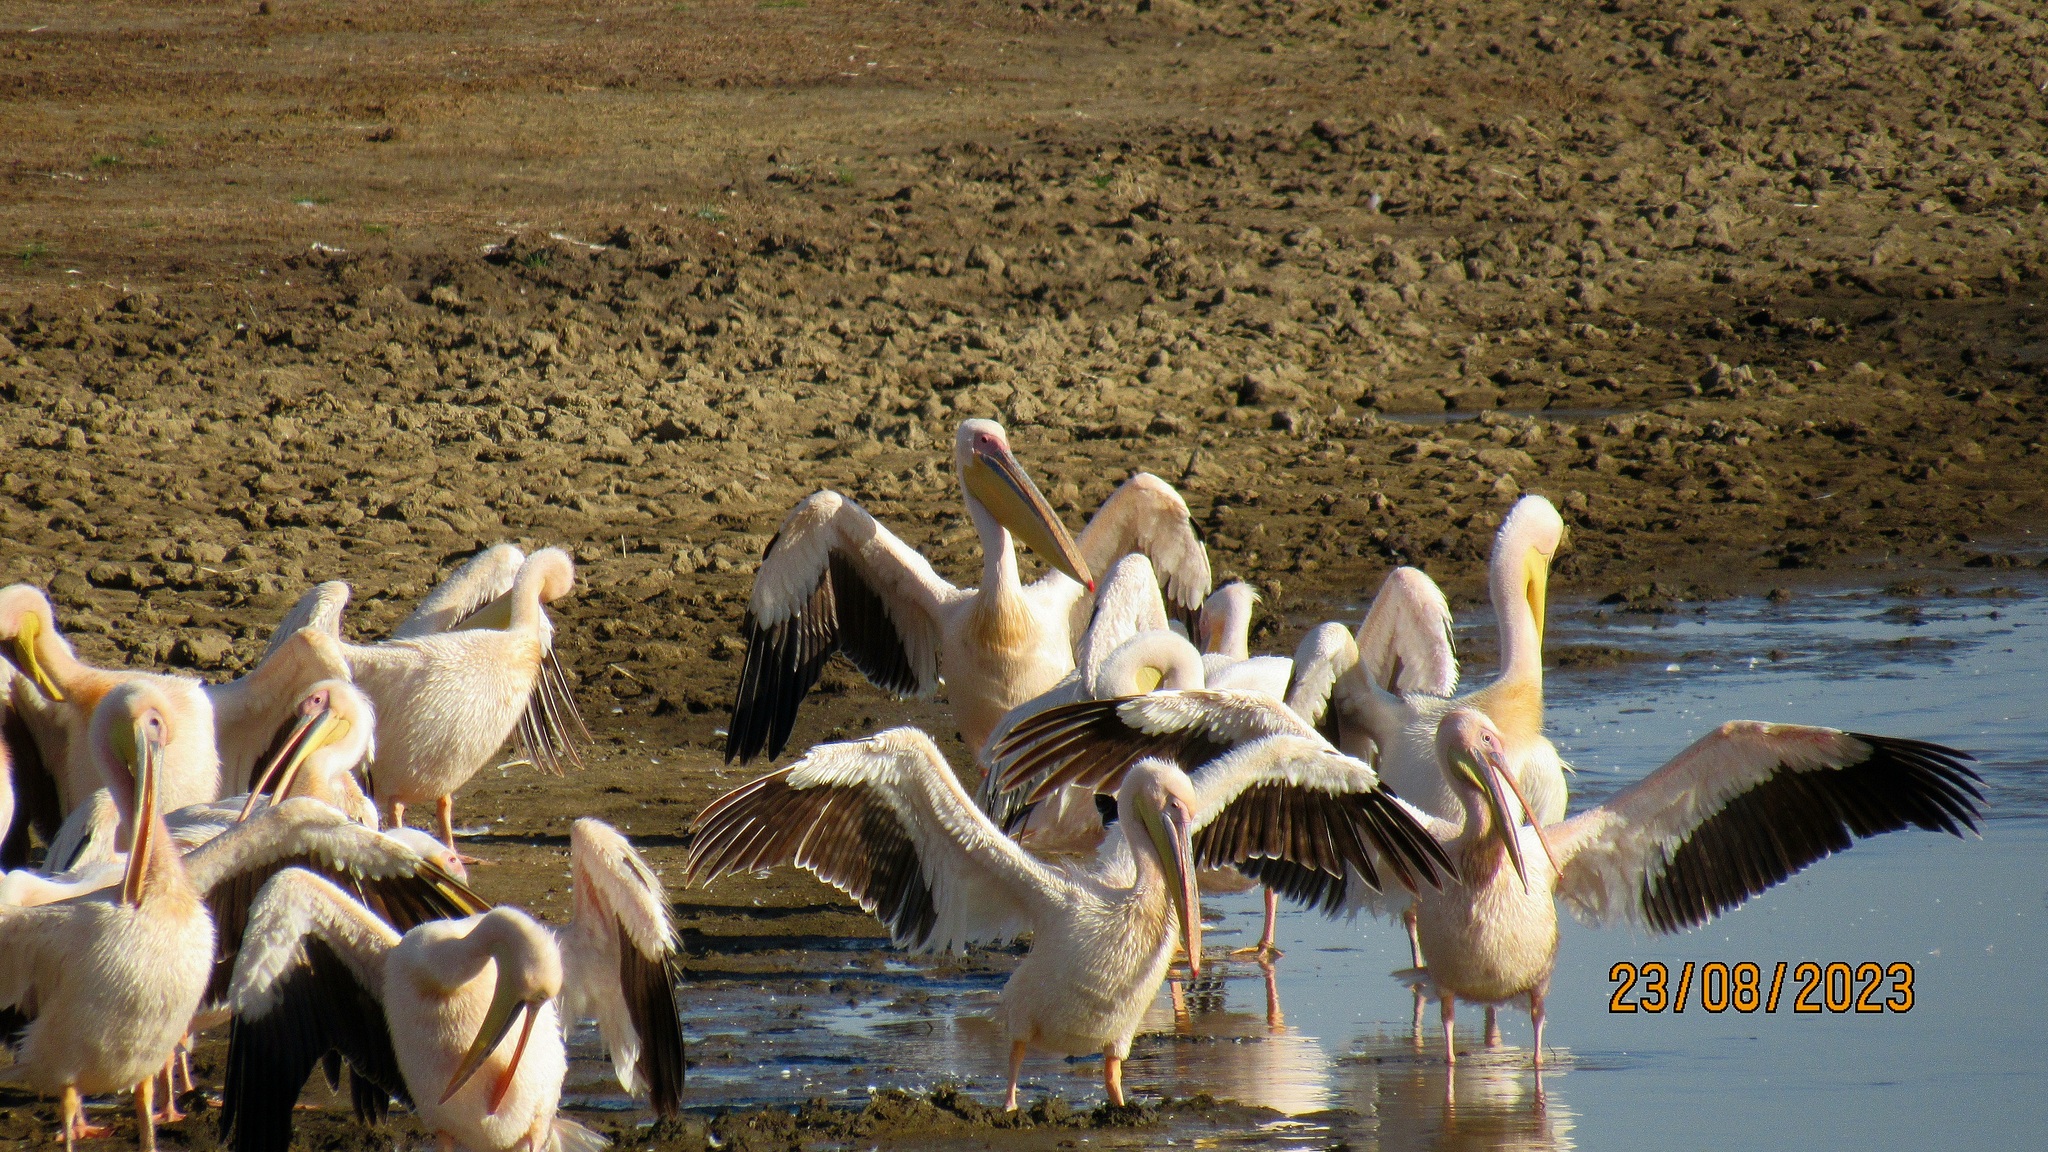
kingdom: Animalia
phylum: Chordata
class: Aves
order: Pelecaniformes
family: Pelecanidae
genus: Pelecanus
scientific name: Pelecanus onocrotalus
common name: Great white pelican
